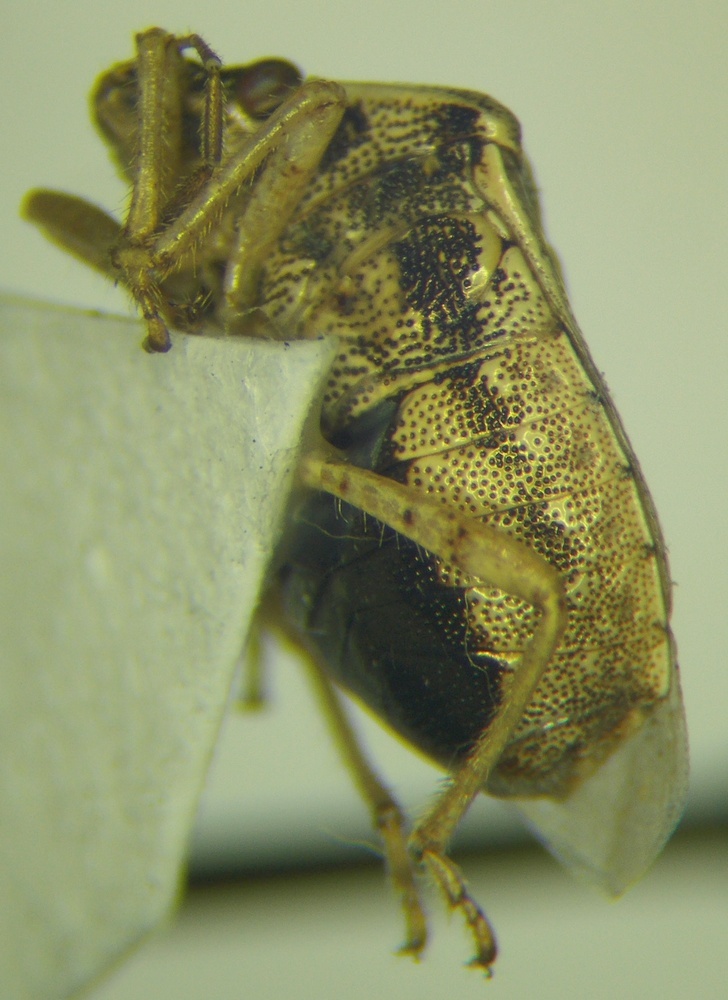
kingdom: Animalia
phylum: Arthropoda
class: Insecta
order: Hemiptera
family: Pentatomidae
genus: Eysarcoris
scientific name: Eysarcoris ventralis
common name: White-spotted stink bug
